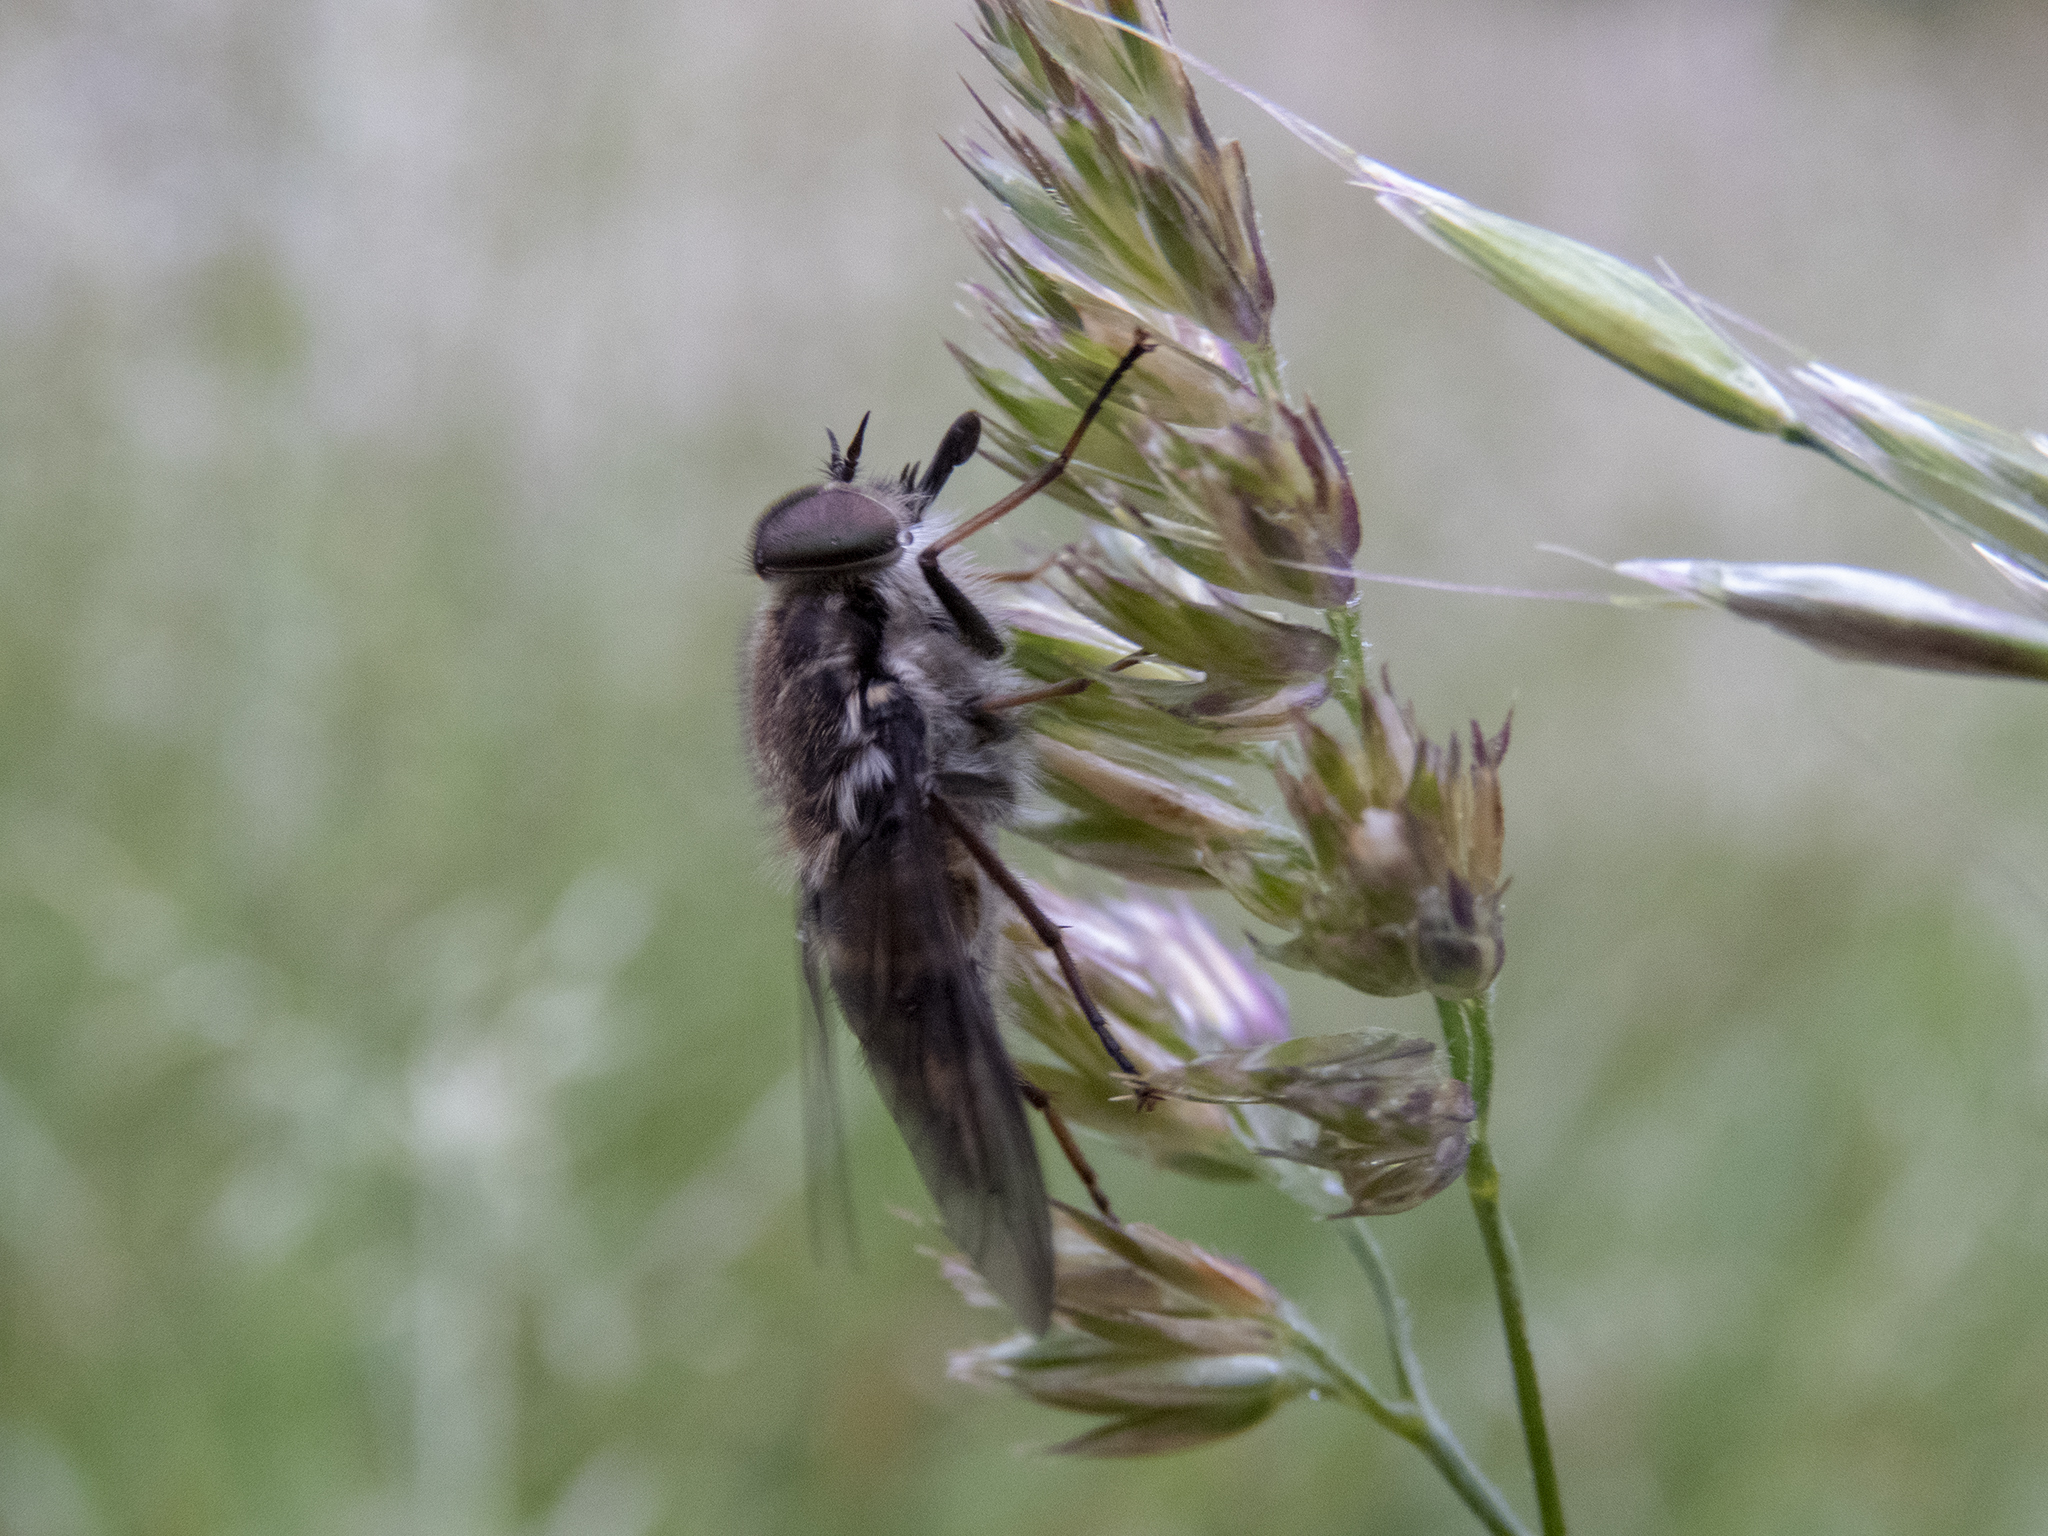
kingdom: Animalia
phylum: Arthropoda
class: Insecta
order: Diptera
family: Tabanidae
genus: Scaptia
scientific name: Scaptia
